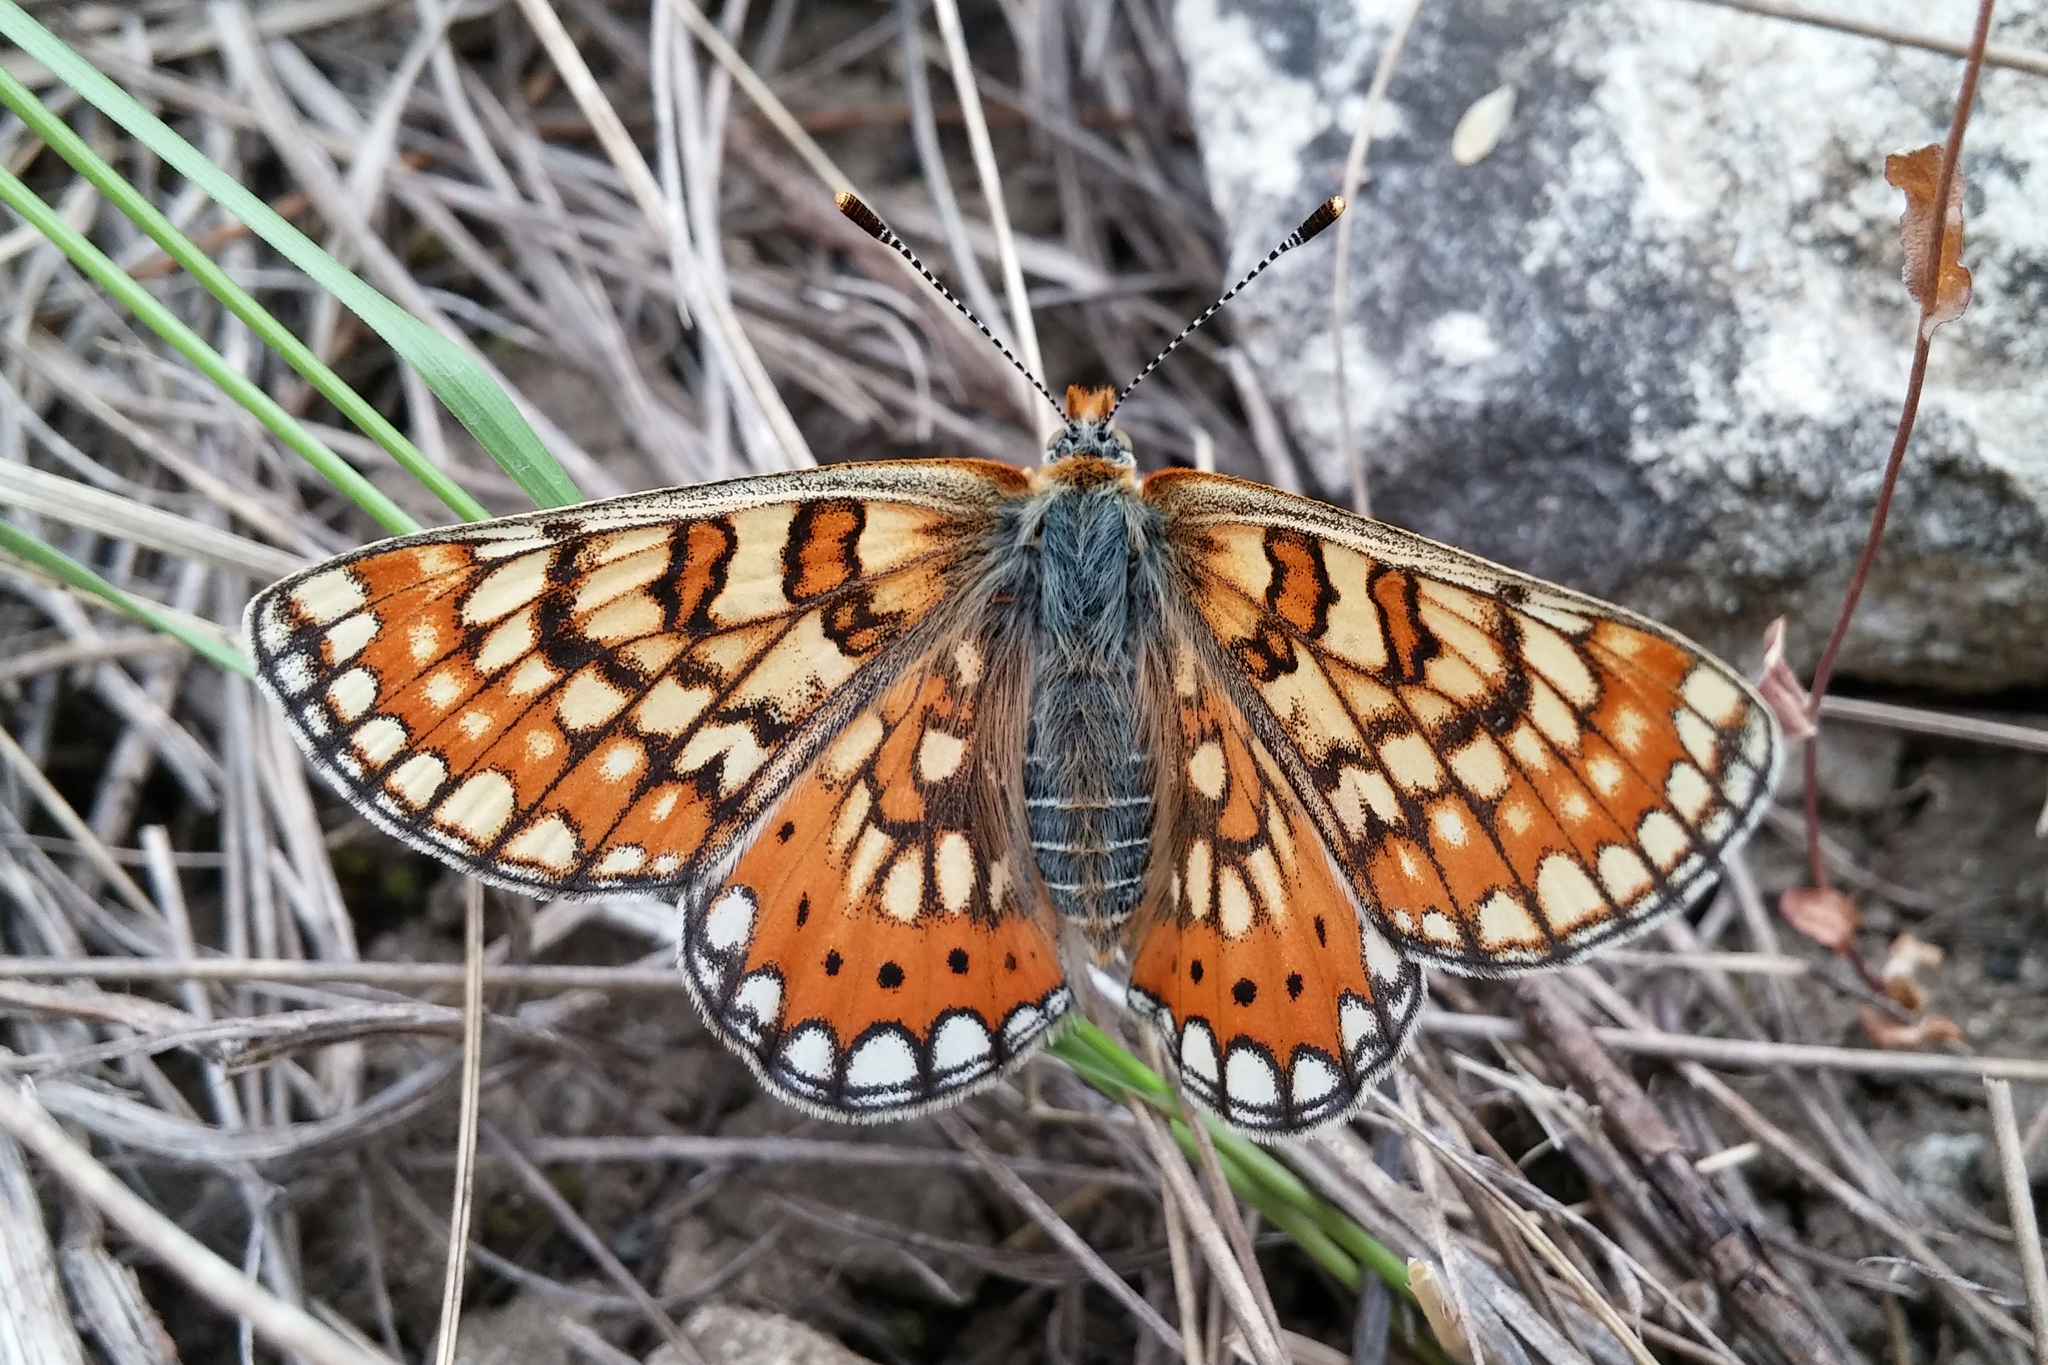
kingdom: Animalia
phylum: Arthropoda
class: Insecta
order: Lepidoptera
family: Nymphalidae
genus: Euphydryas
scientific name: Euphydryas aurinia
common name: Marsh fritillary
